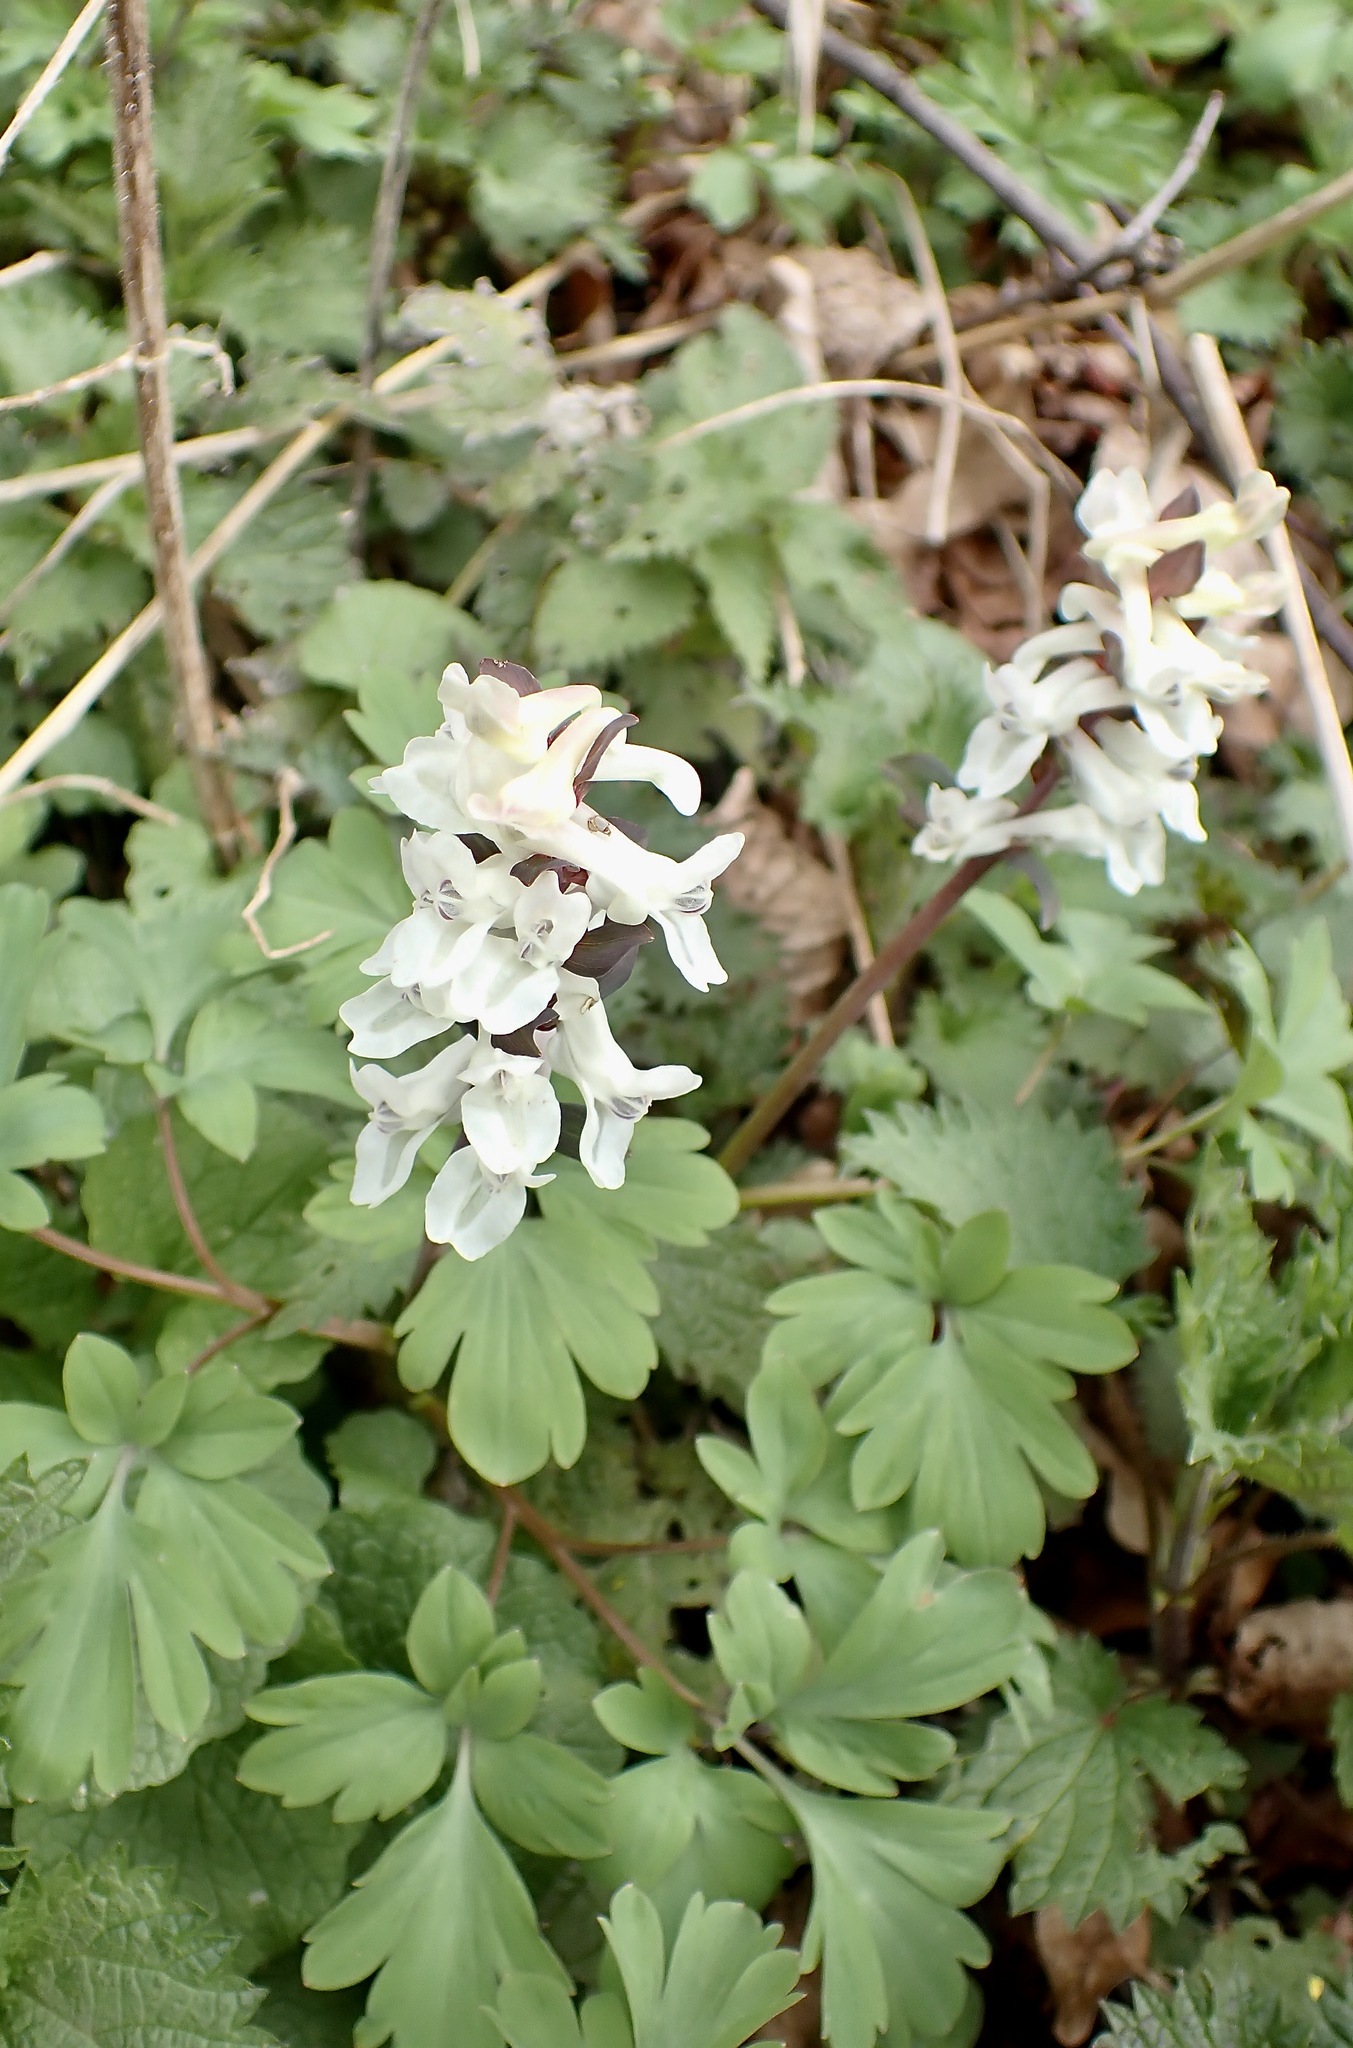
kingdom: Plantae
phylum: Tracheophyta
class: Magnoliopsida
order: Ranunculales
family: Papaveraceae
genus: Corydalis
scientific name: Corydalis cava
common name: Hollowroot
